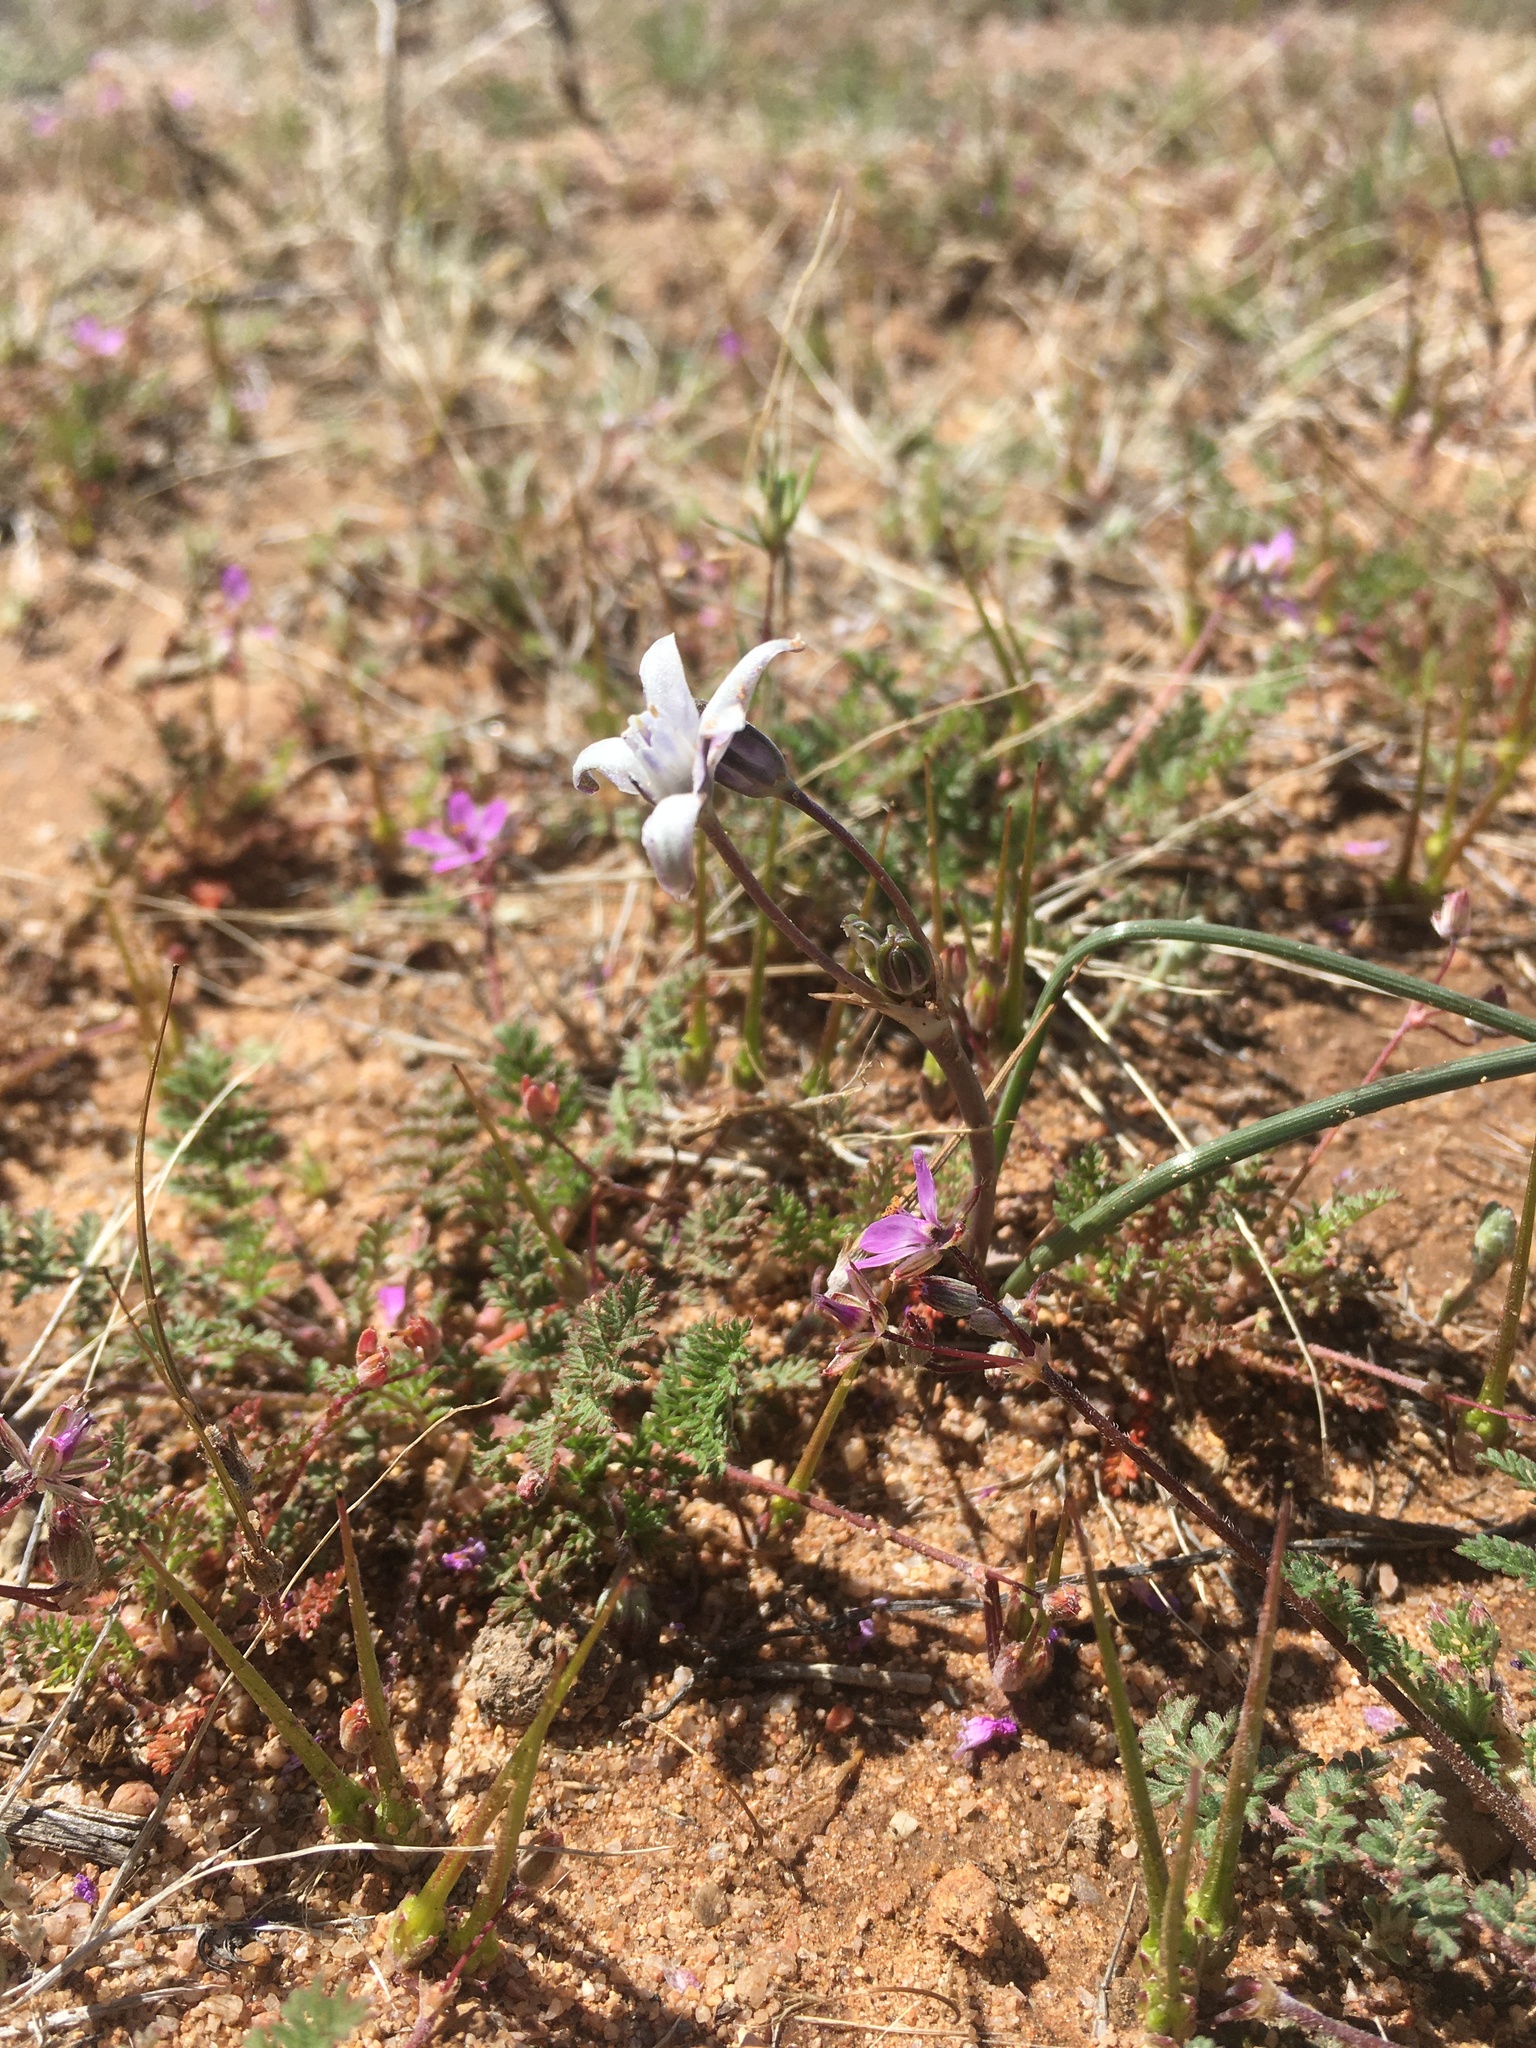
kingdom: Plantae
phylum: Tracheophyta
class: Liliopsida
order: Asparagales
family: Asparagaceae
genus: Muilla
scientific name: Muilla lordsburgana
